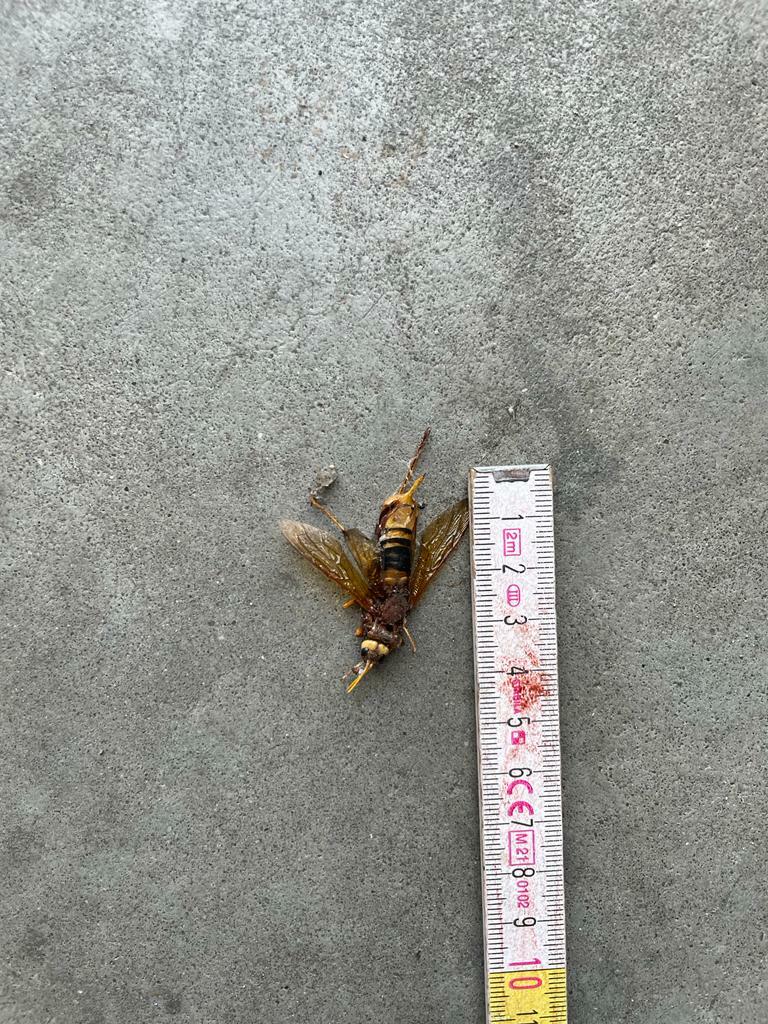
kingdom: Animalia
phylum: Arthropoda
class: Insecta
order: Hymenoptera
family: Siricidae
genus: Urocerus
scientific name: Urocerus augur
